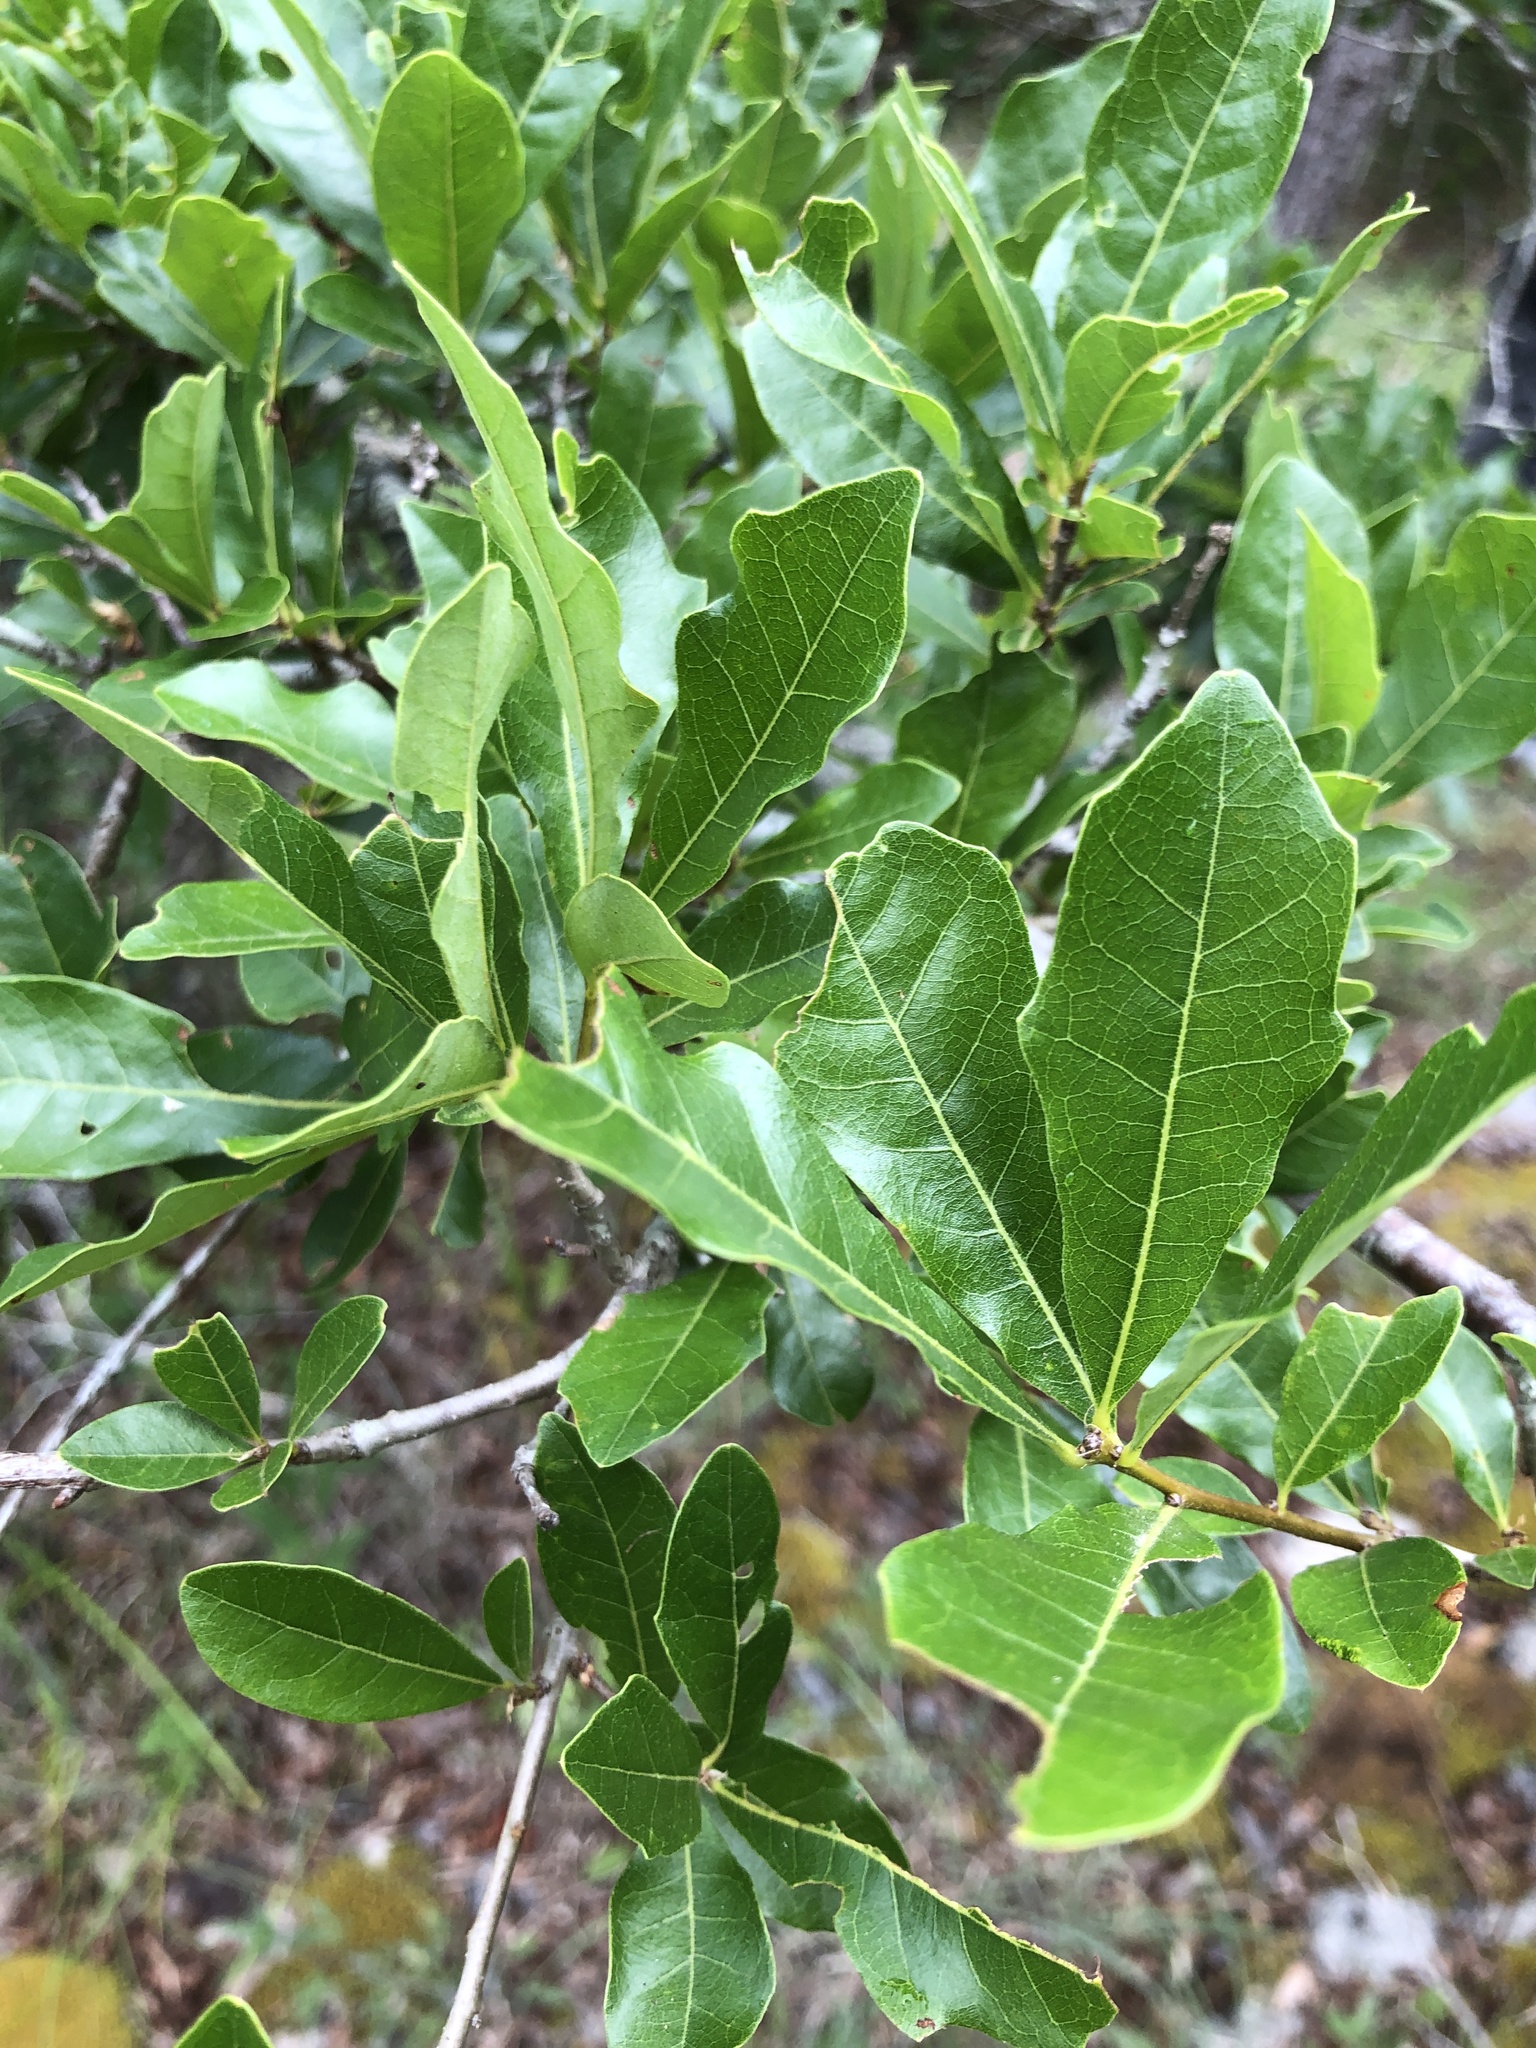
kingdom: Plantae
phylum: Tracheophyta
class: Magnoliopsida
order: Fagales
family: Fagaceae
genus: Quercus
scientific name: Quercus sinuata
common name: Durand oak
